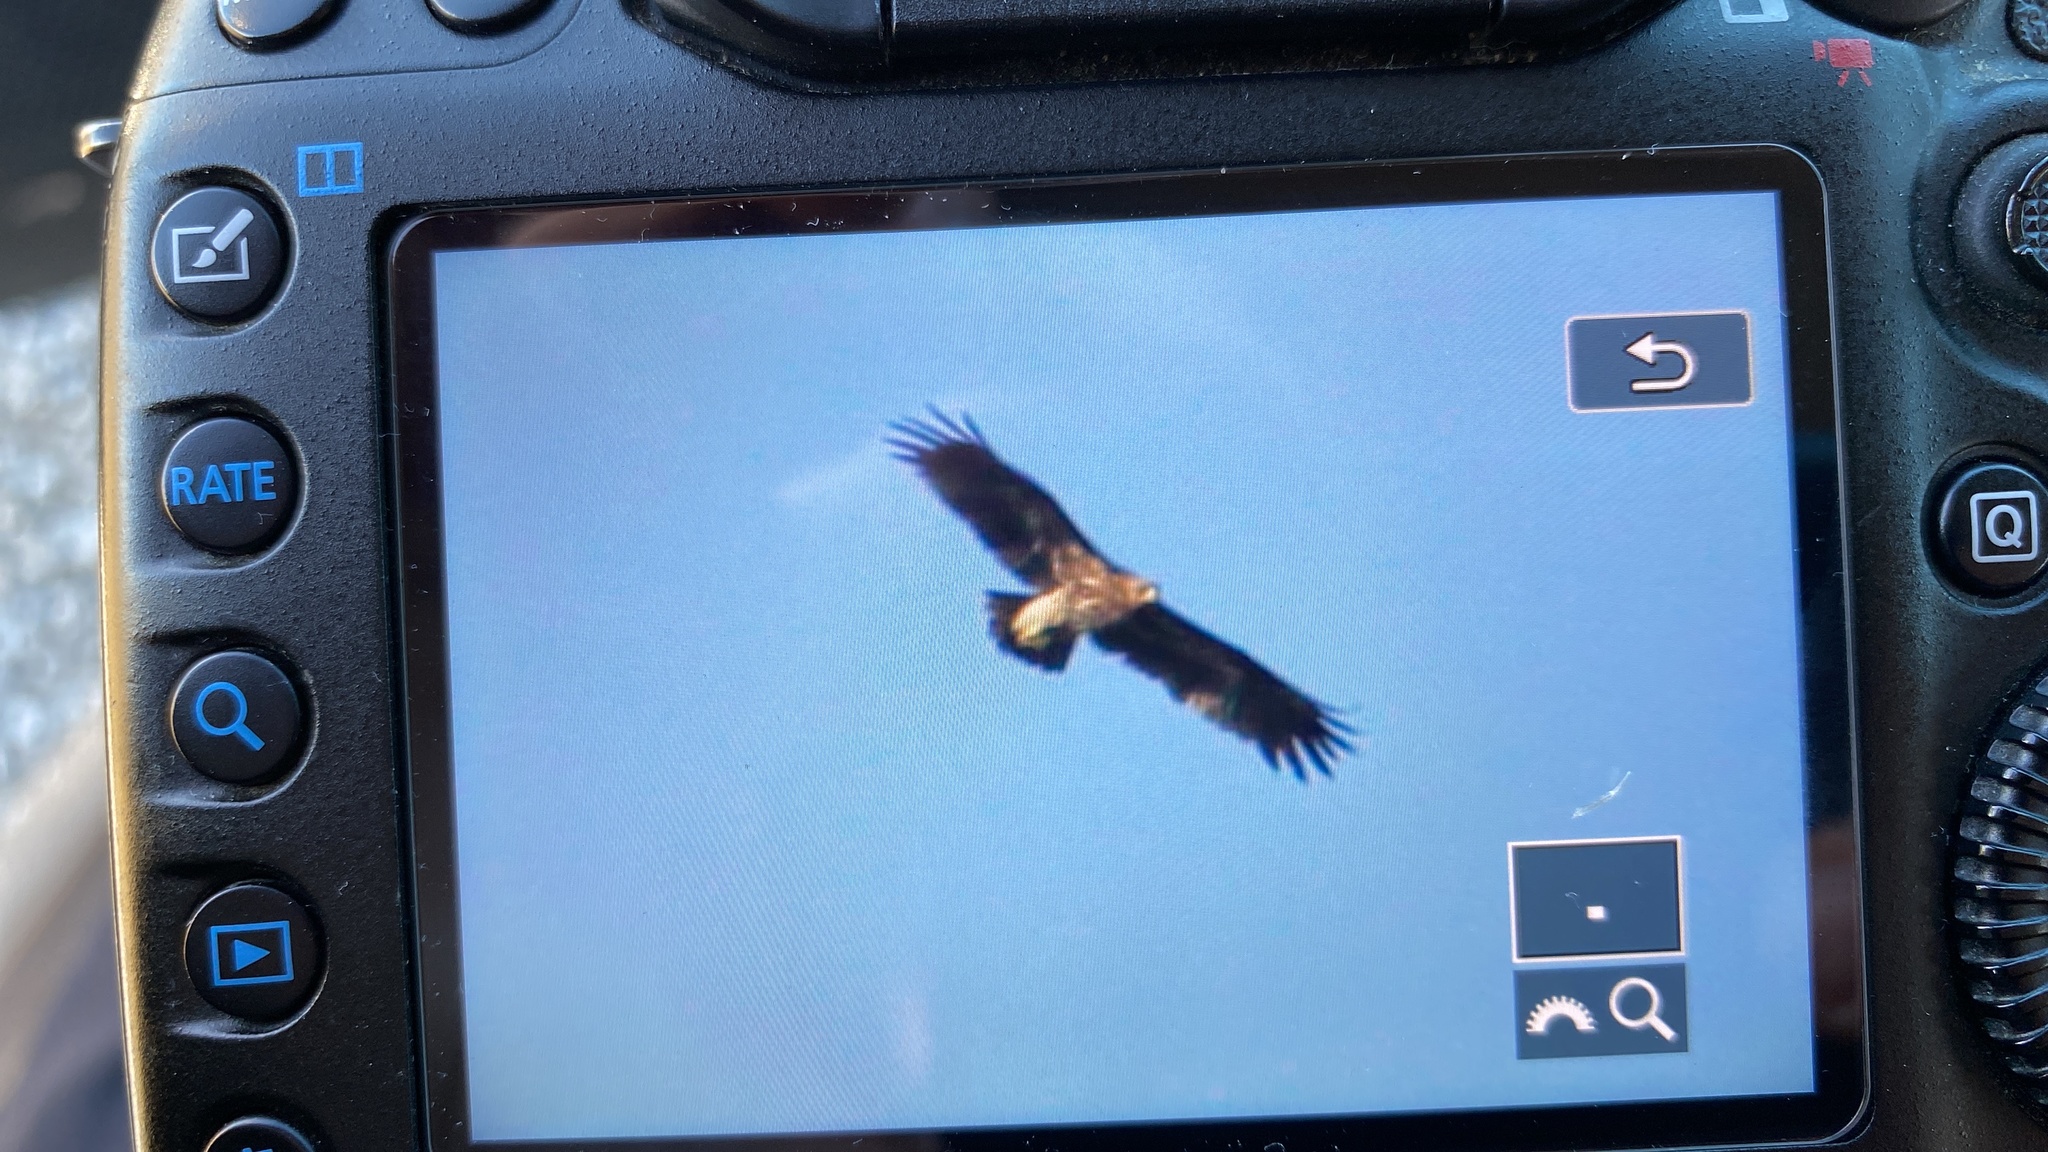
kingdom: Animalia
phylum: Chordata
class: Aves
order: Accipitriformes
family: Accipitridae
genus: Aquila
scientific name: Aquila clanga
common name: Greater spotted eagle
